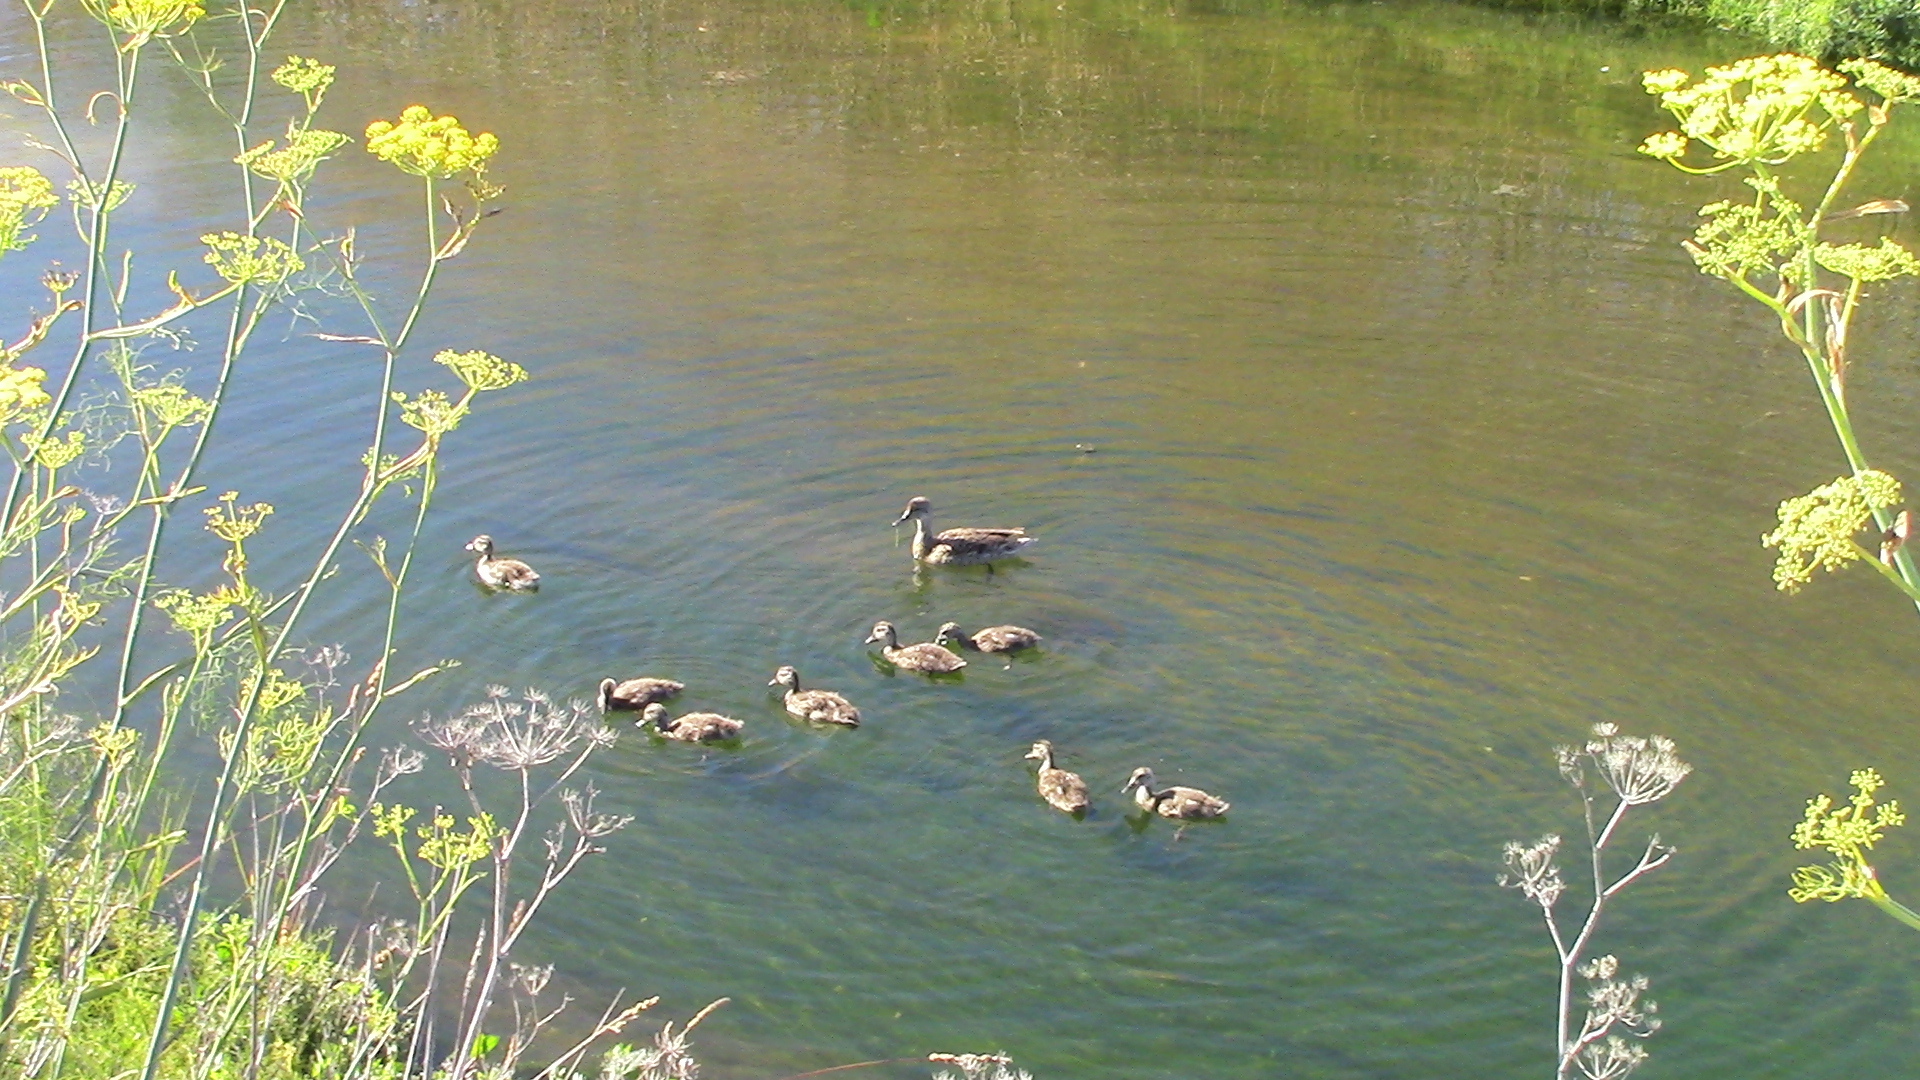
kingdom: Animalia
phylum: Chordata
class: Aves
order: Anseriformes
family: Anatidae
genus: Mareca
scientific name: Mareca strepera
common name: Gadwall
